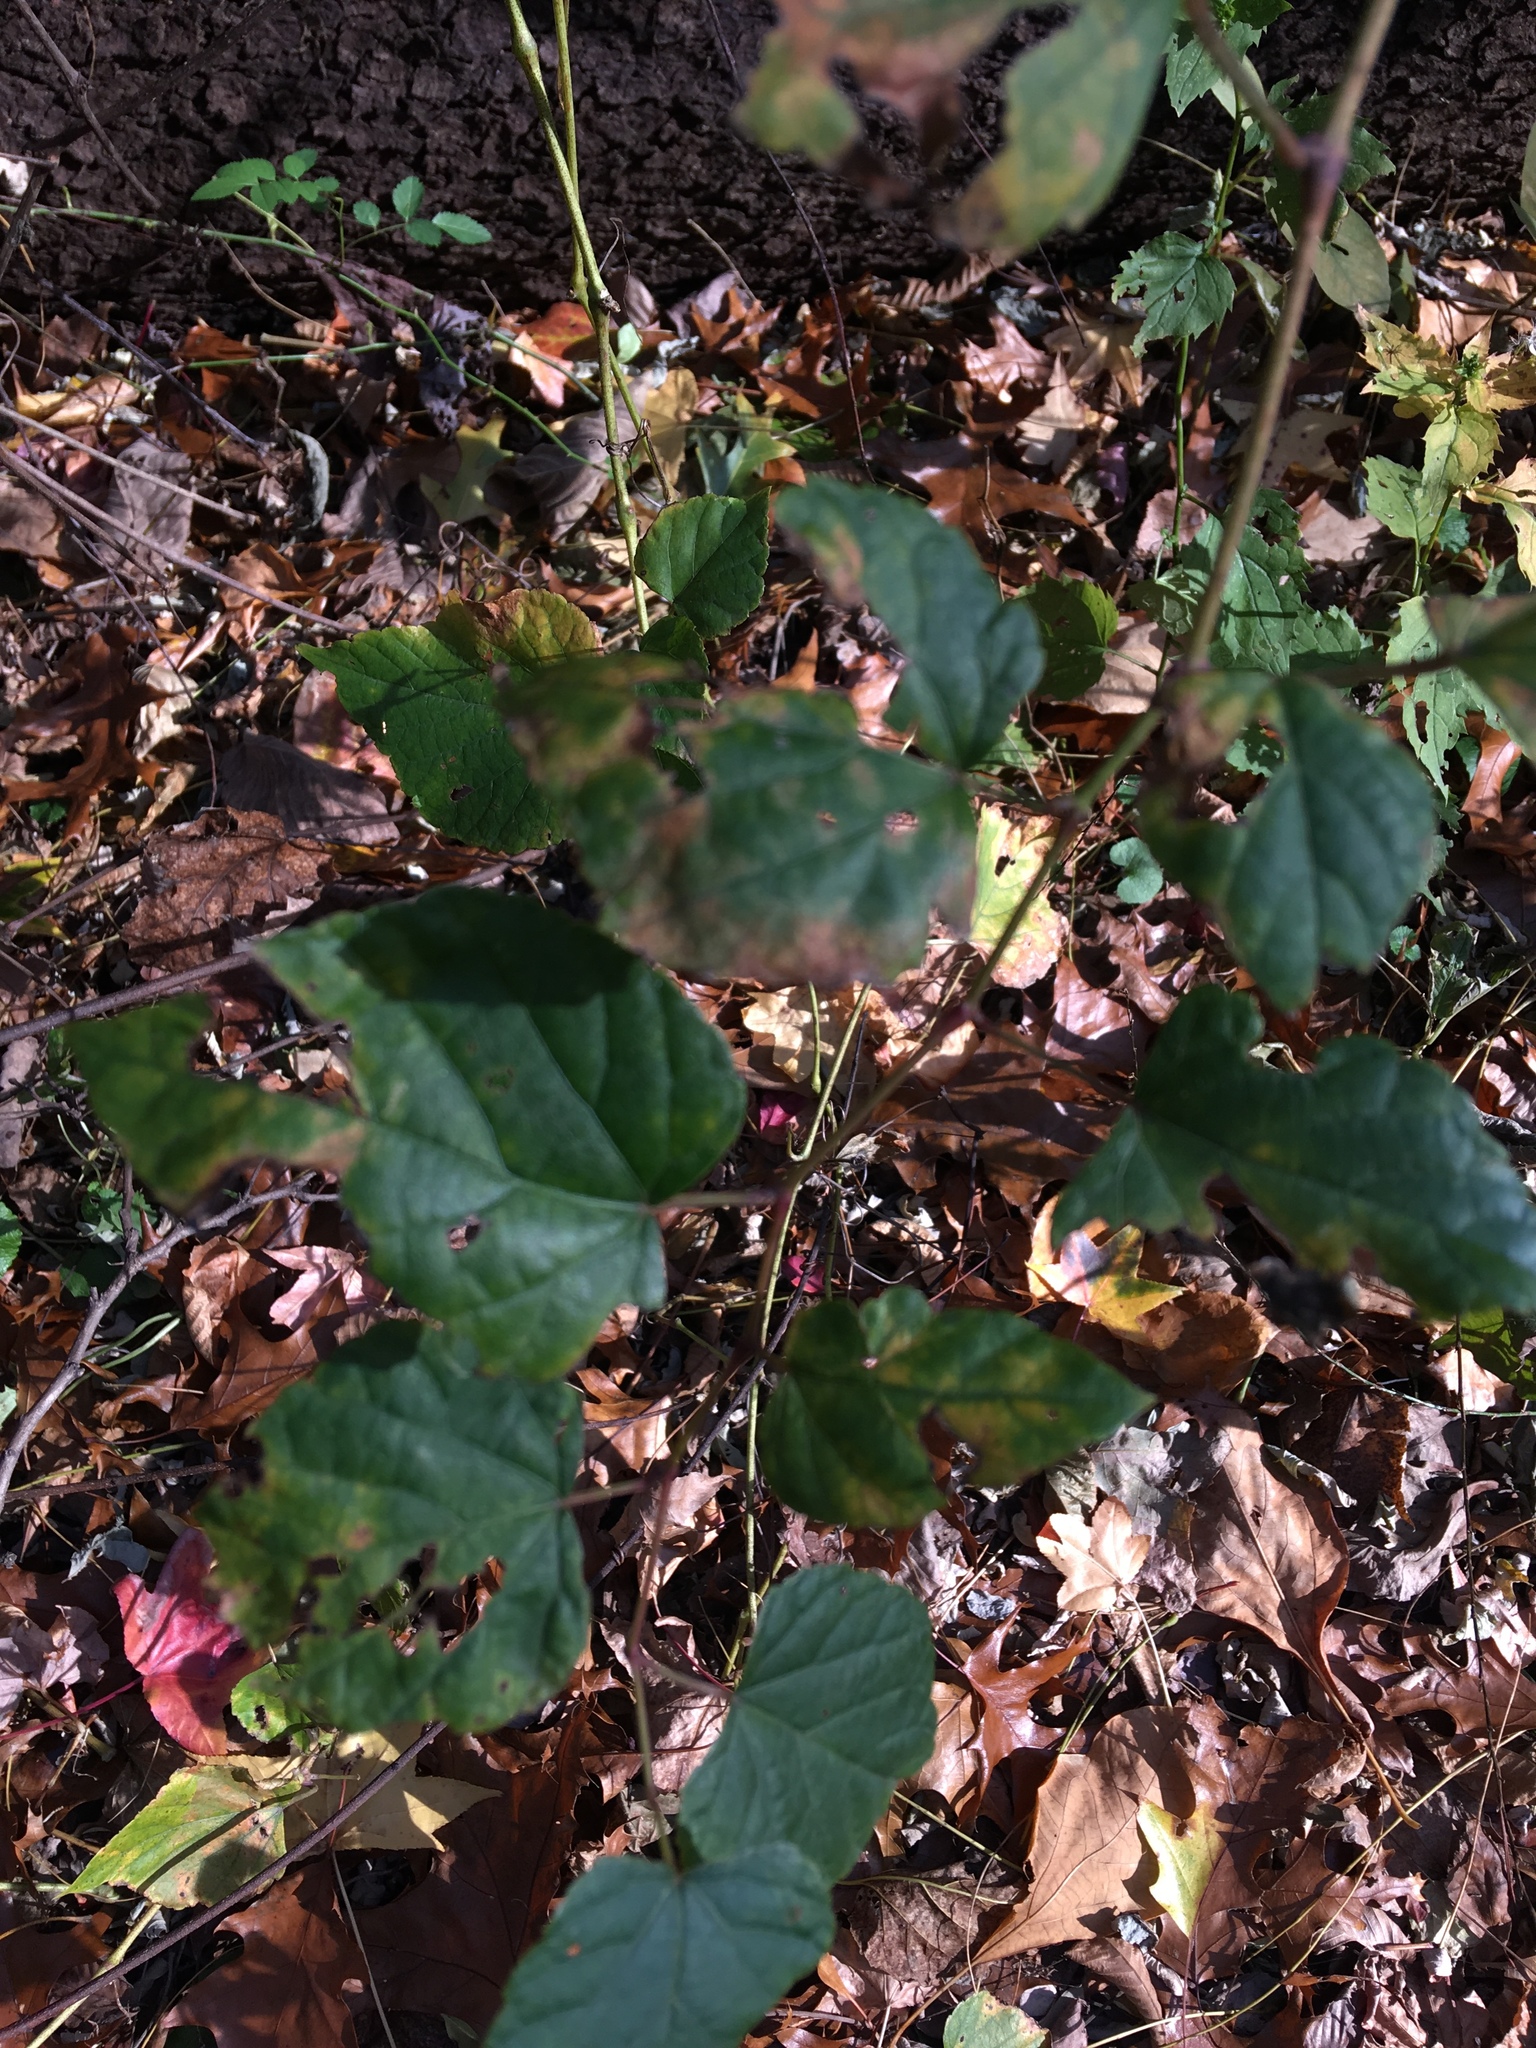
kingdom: Plantae
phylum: Tracheophyta
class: Magnoliopsida
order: Vitales
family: Vitaceae
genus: Ampelopsis
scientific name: Ampelopsis glandulosa
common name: Amur peppervine
